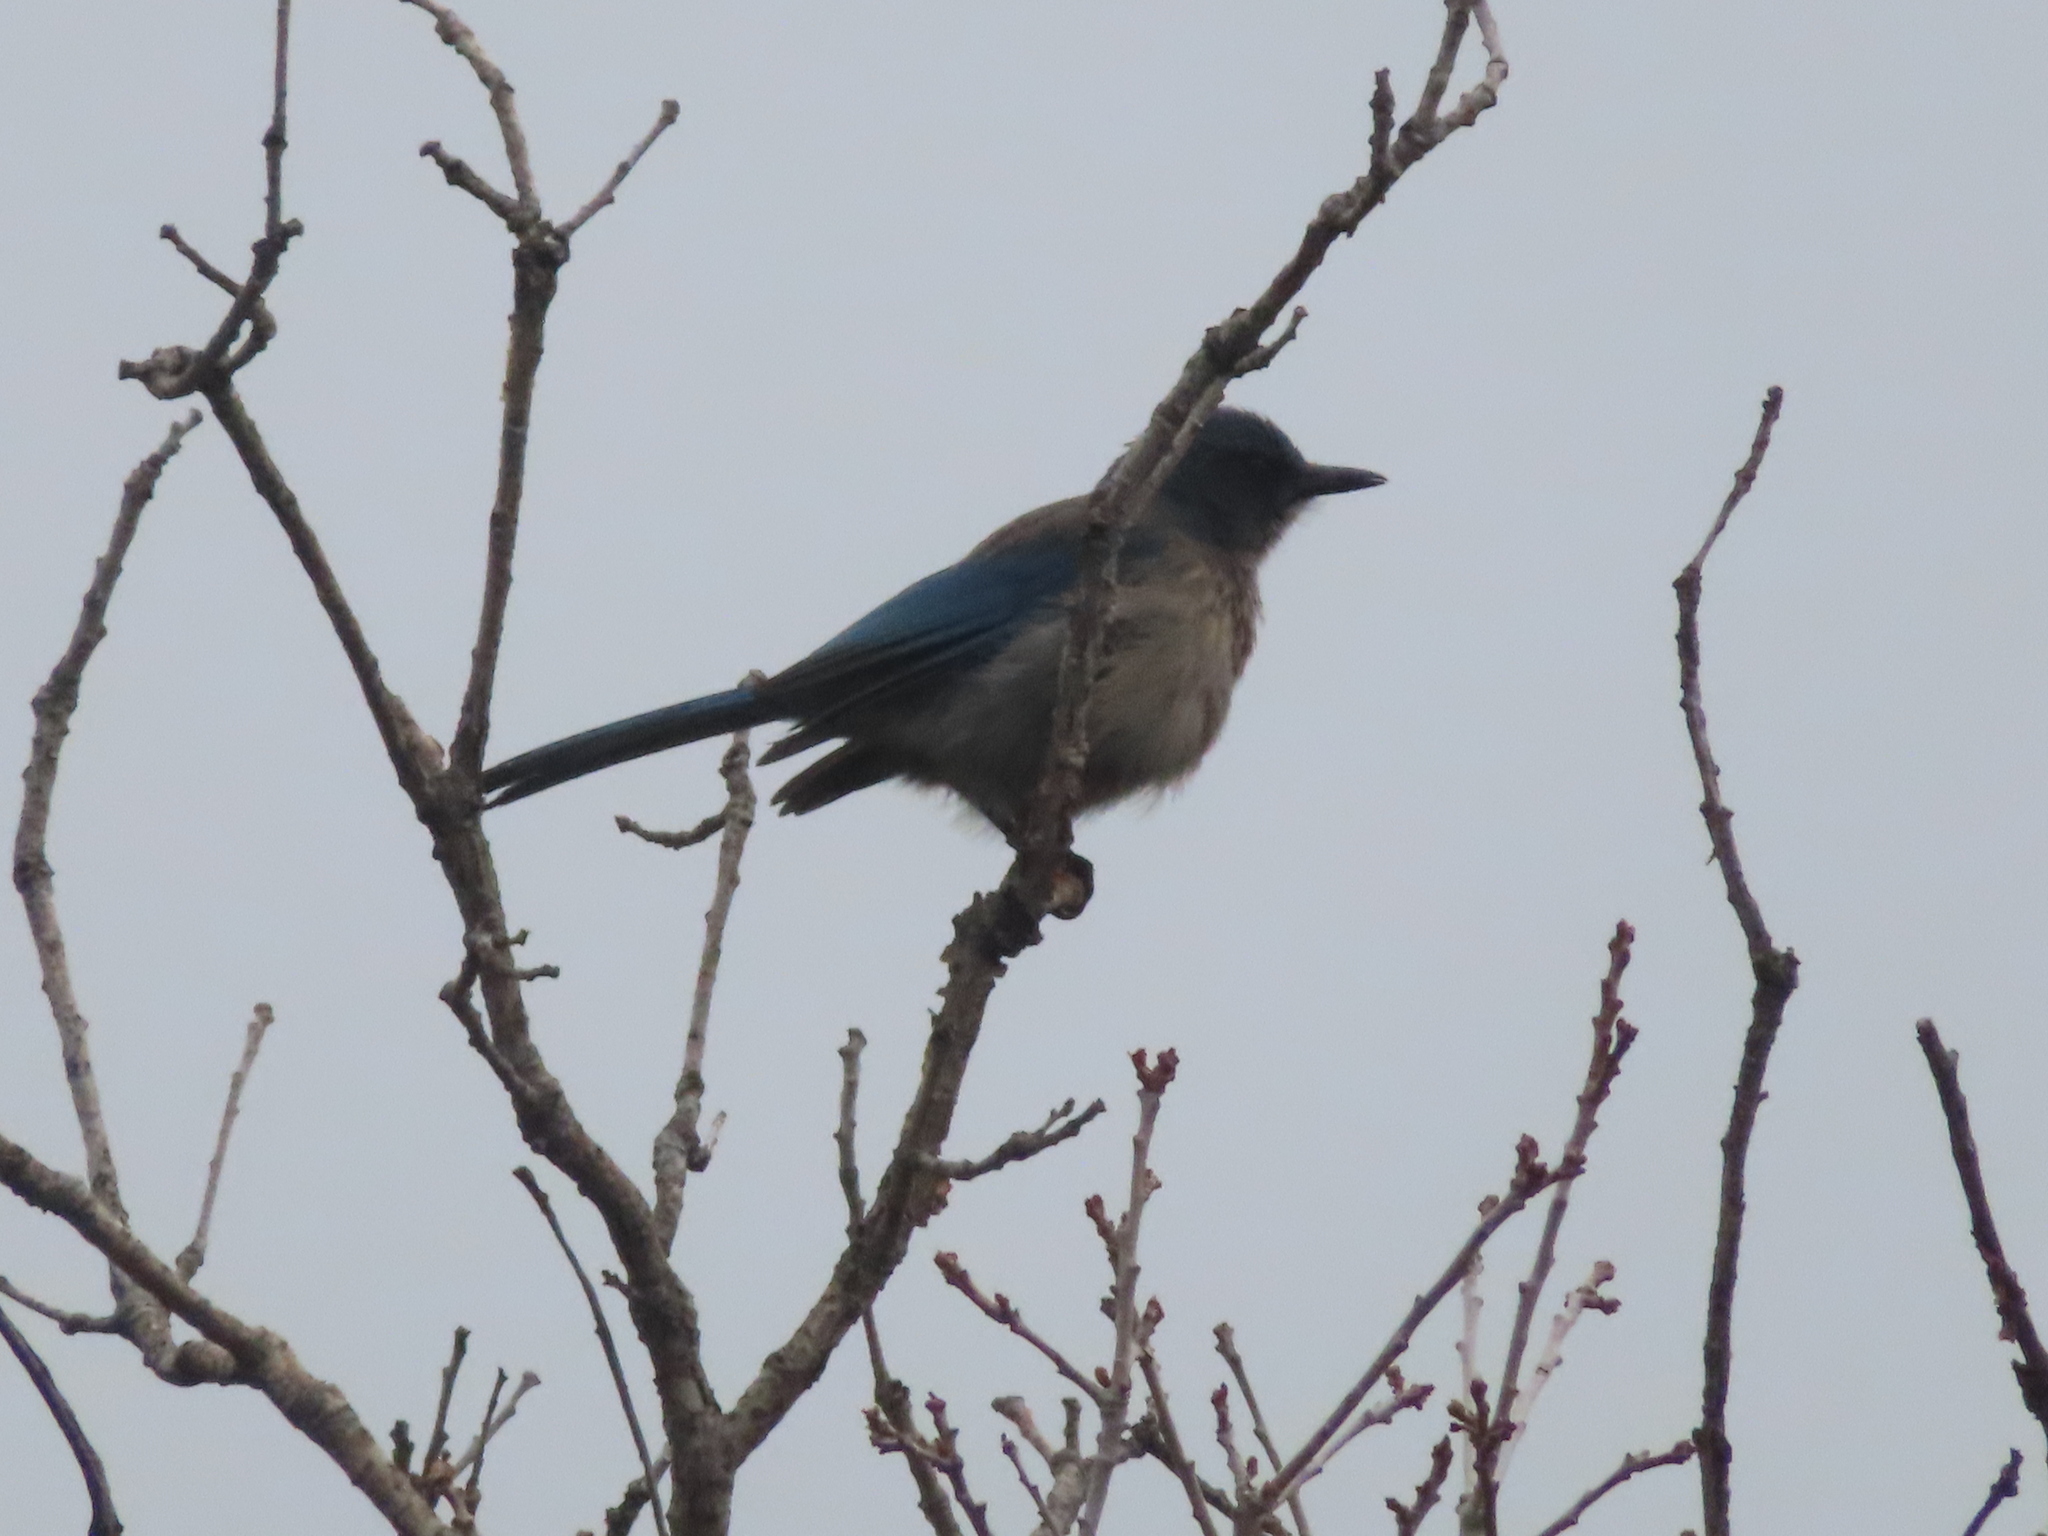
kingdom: Animalia
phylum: Chordata
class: Aves
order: Passeriformes
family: Corvidae
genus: Aphelocoma
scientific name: Aphelocoma woodhouseii
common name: Woodhouse's scrub-jay
